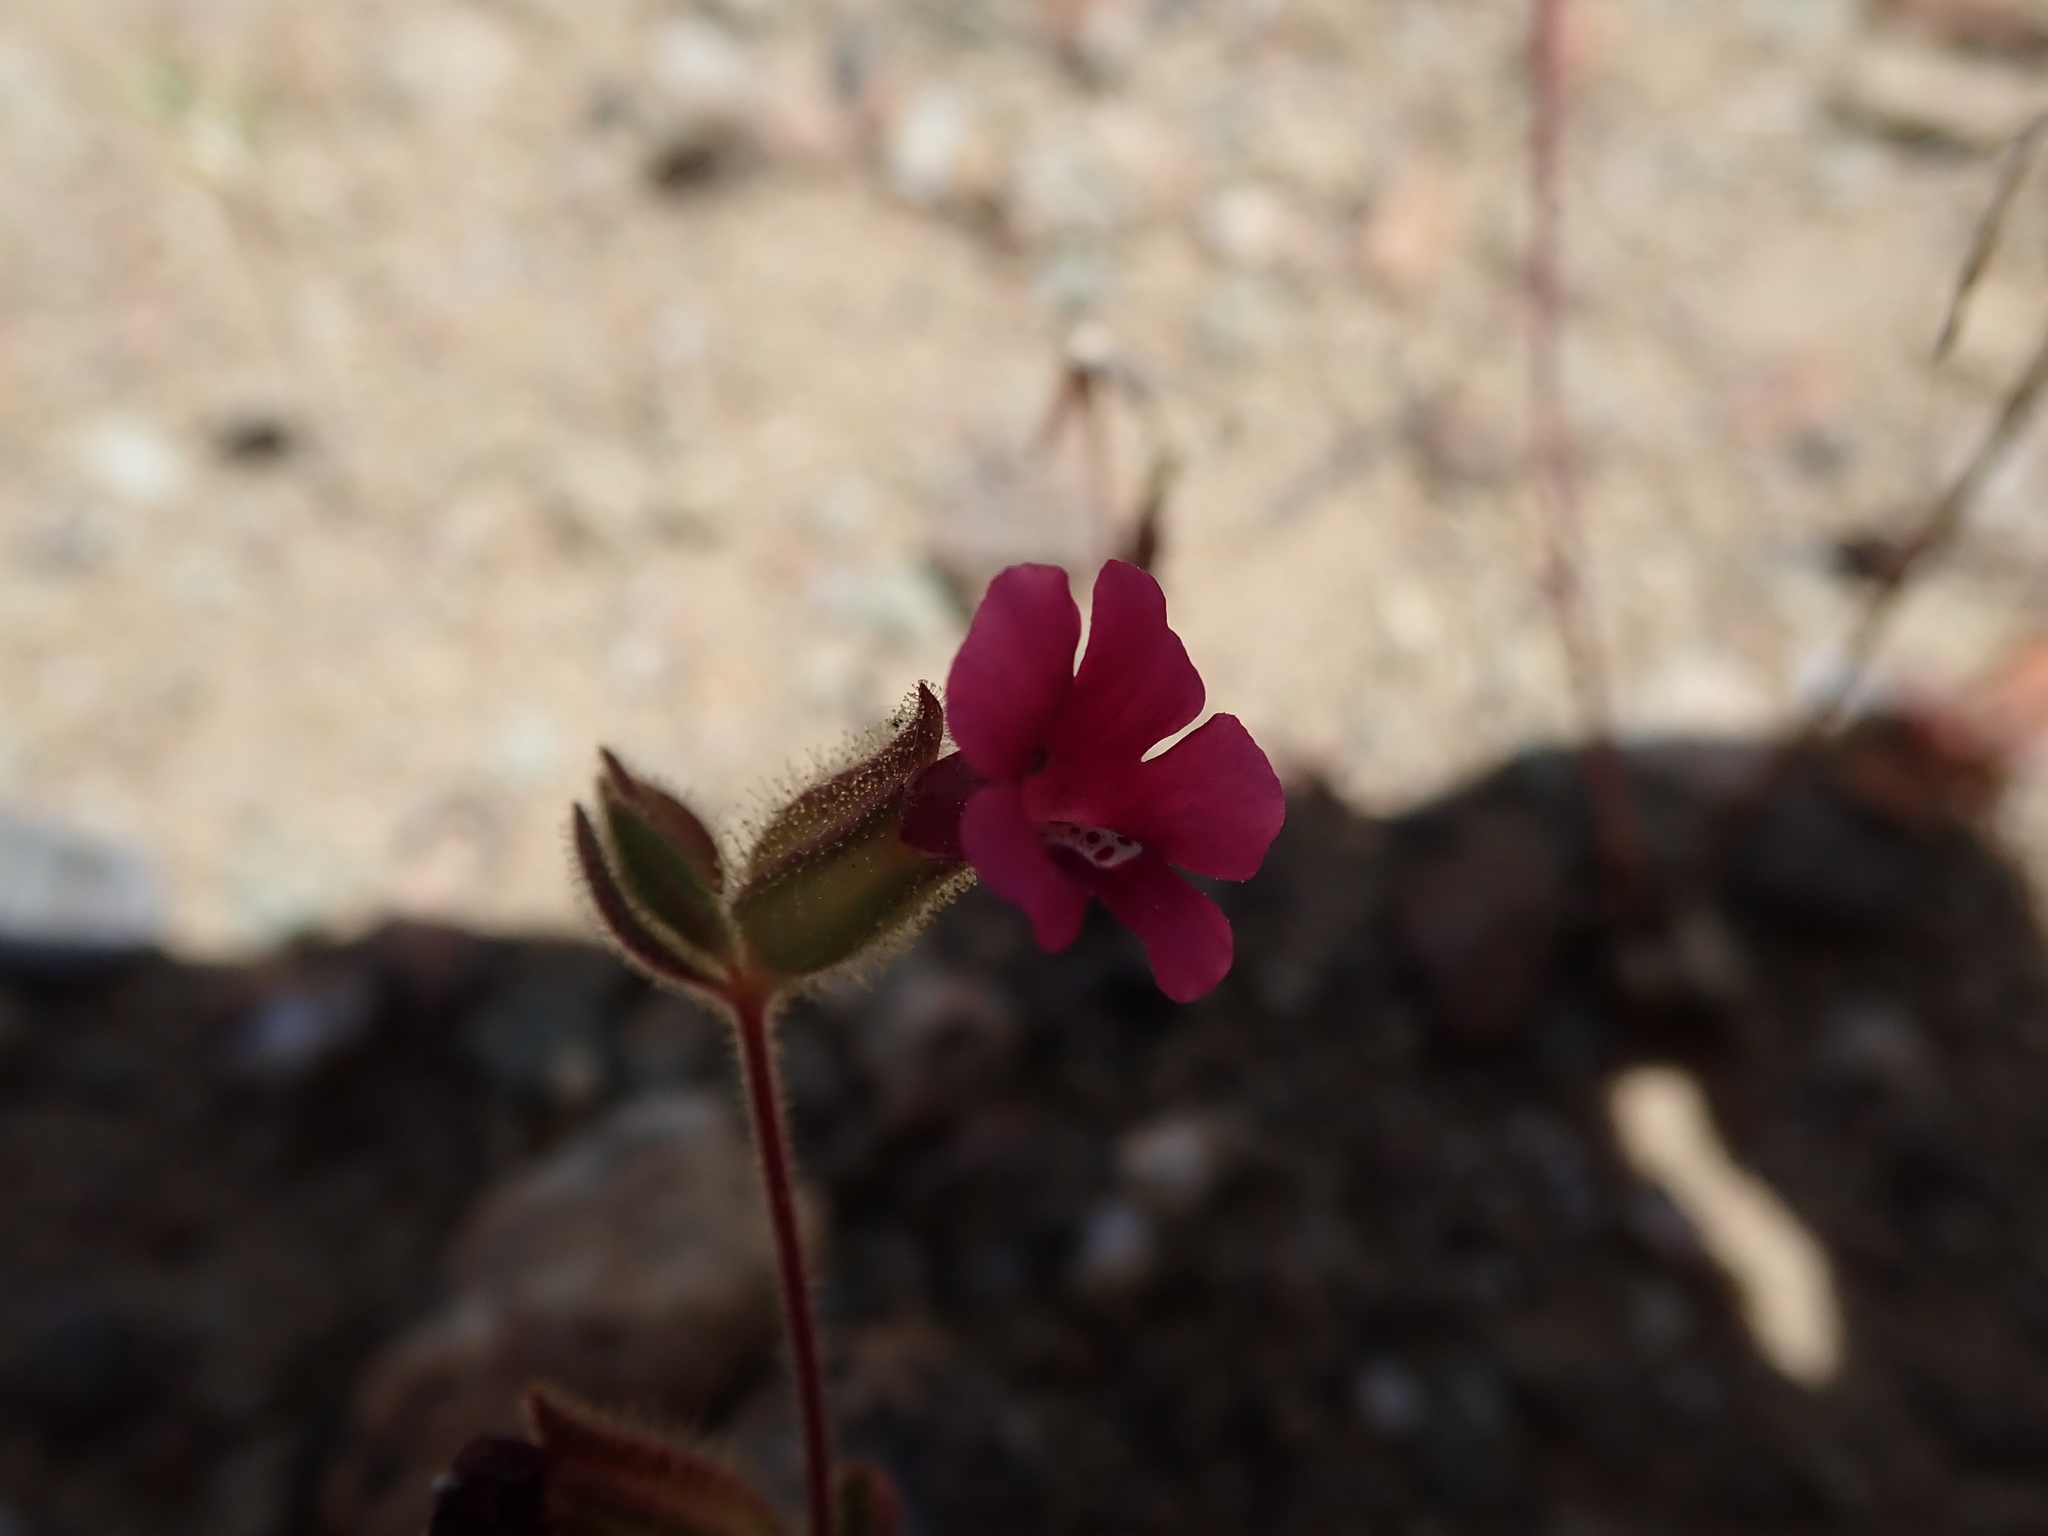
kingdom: Plantae
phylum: Tracheophyta
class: Magnoliopsida
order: Lamiales
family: Phrymaceae
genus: Diplacus
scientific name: Diplacus bolanderi
